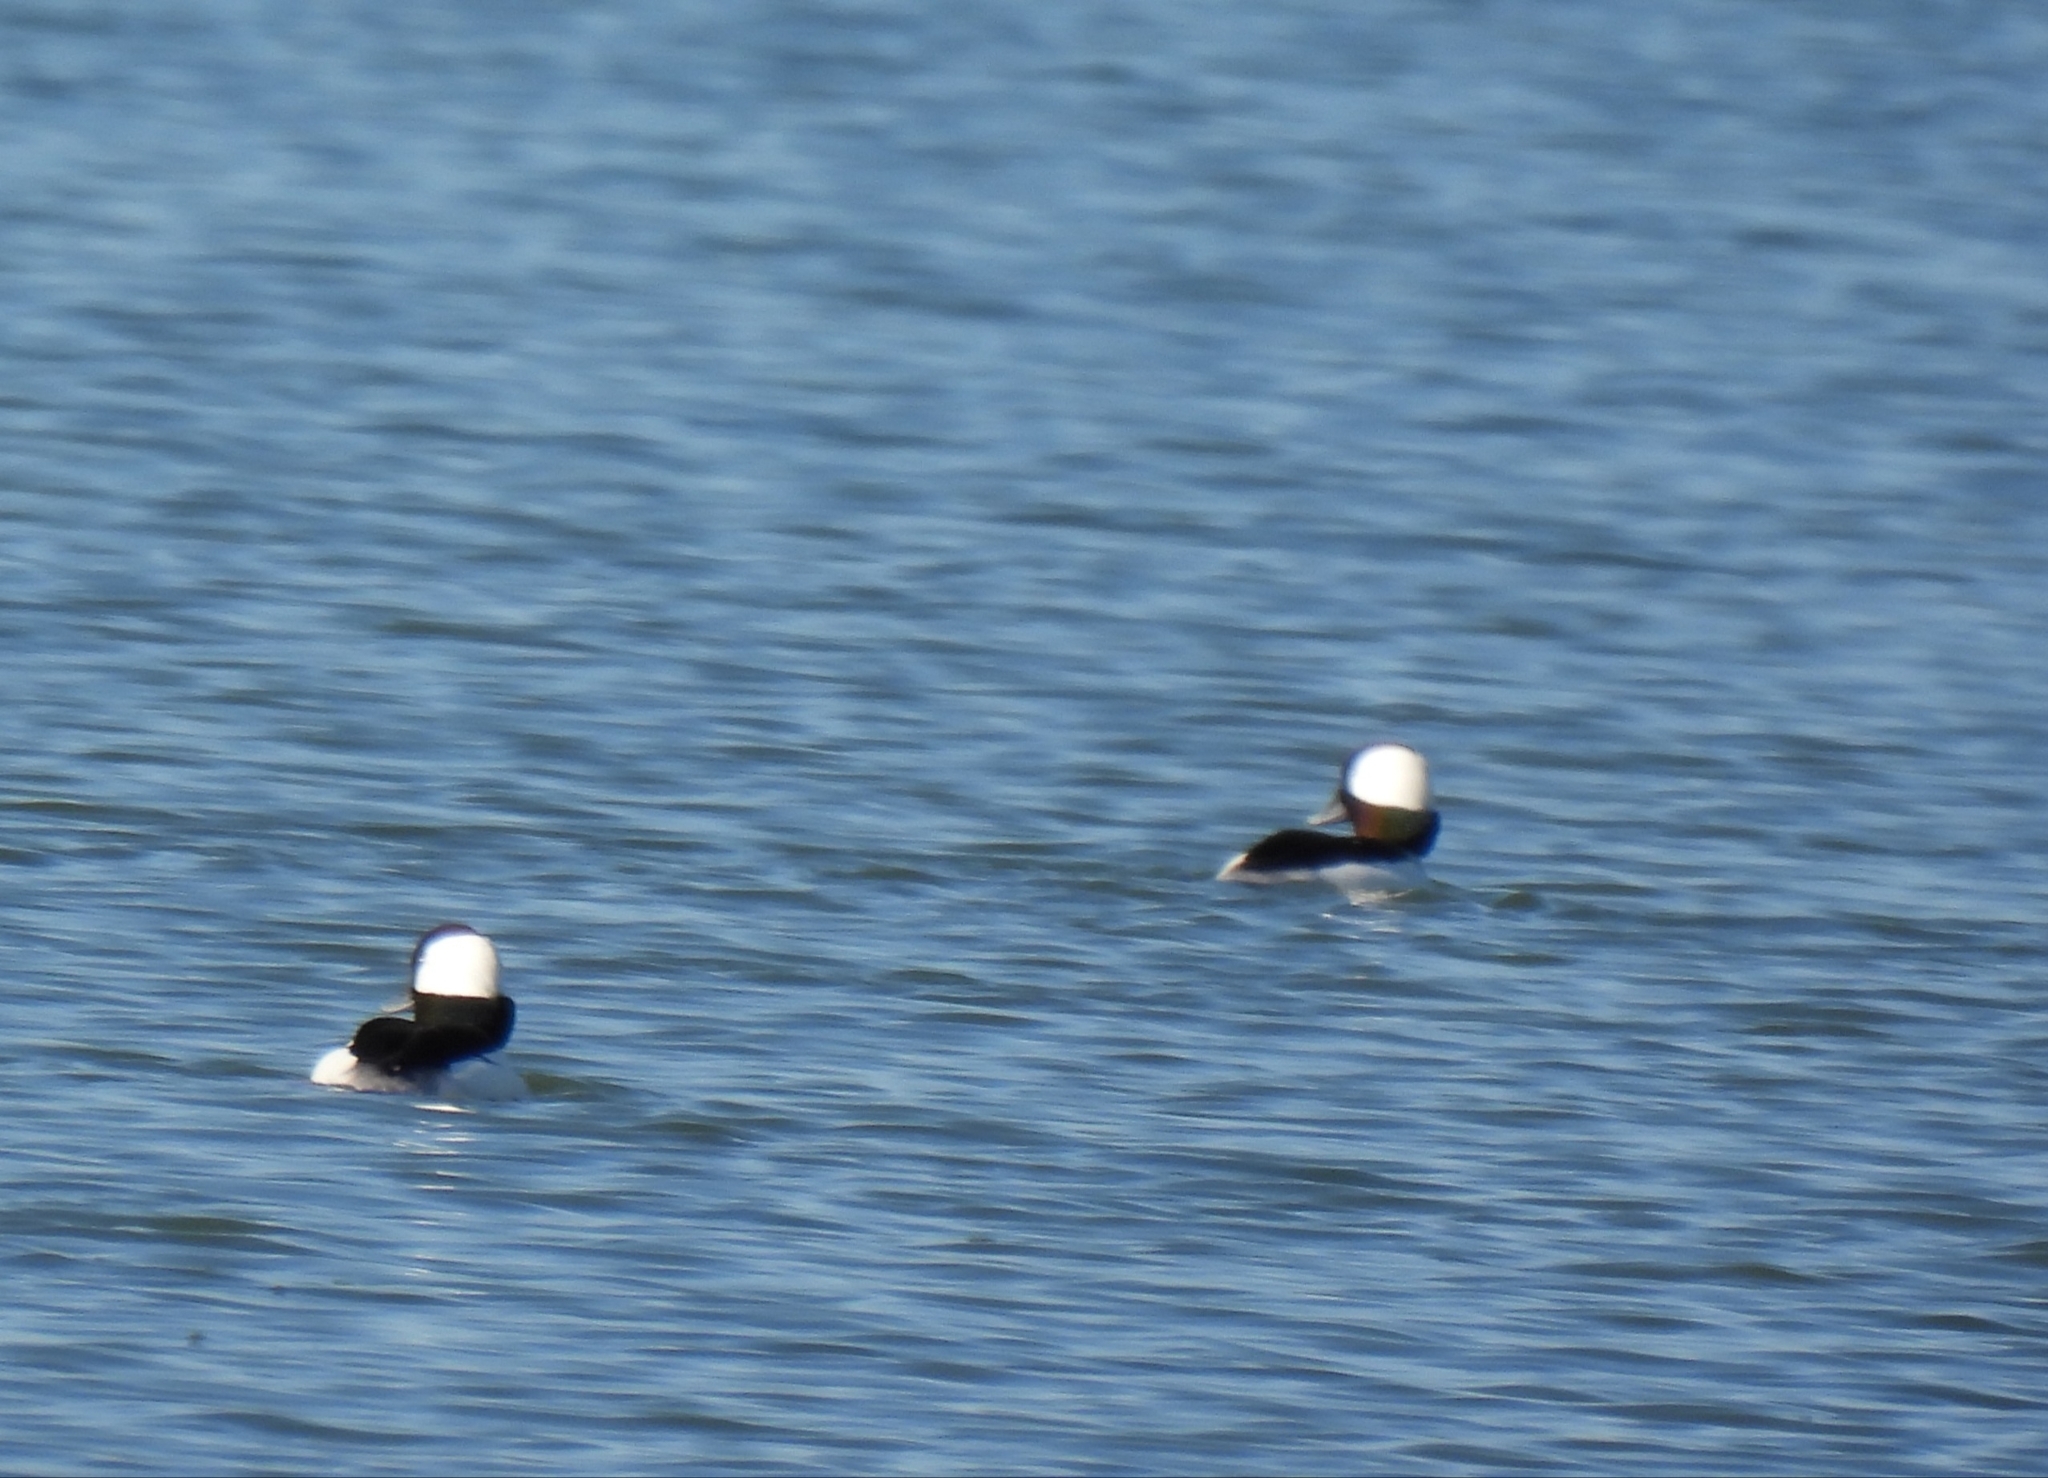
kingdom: Animalia
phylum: Chordata
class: Aves
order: Anseriformes
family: Anatidae
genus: Bucephala
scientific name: Bucephala albeola
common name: Bufflehead
